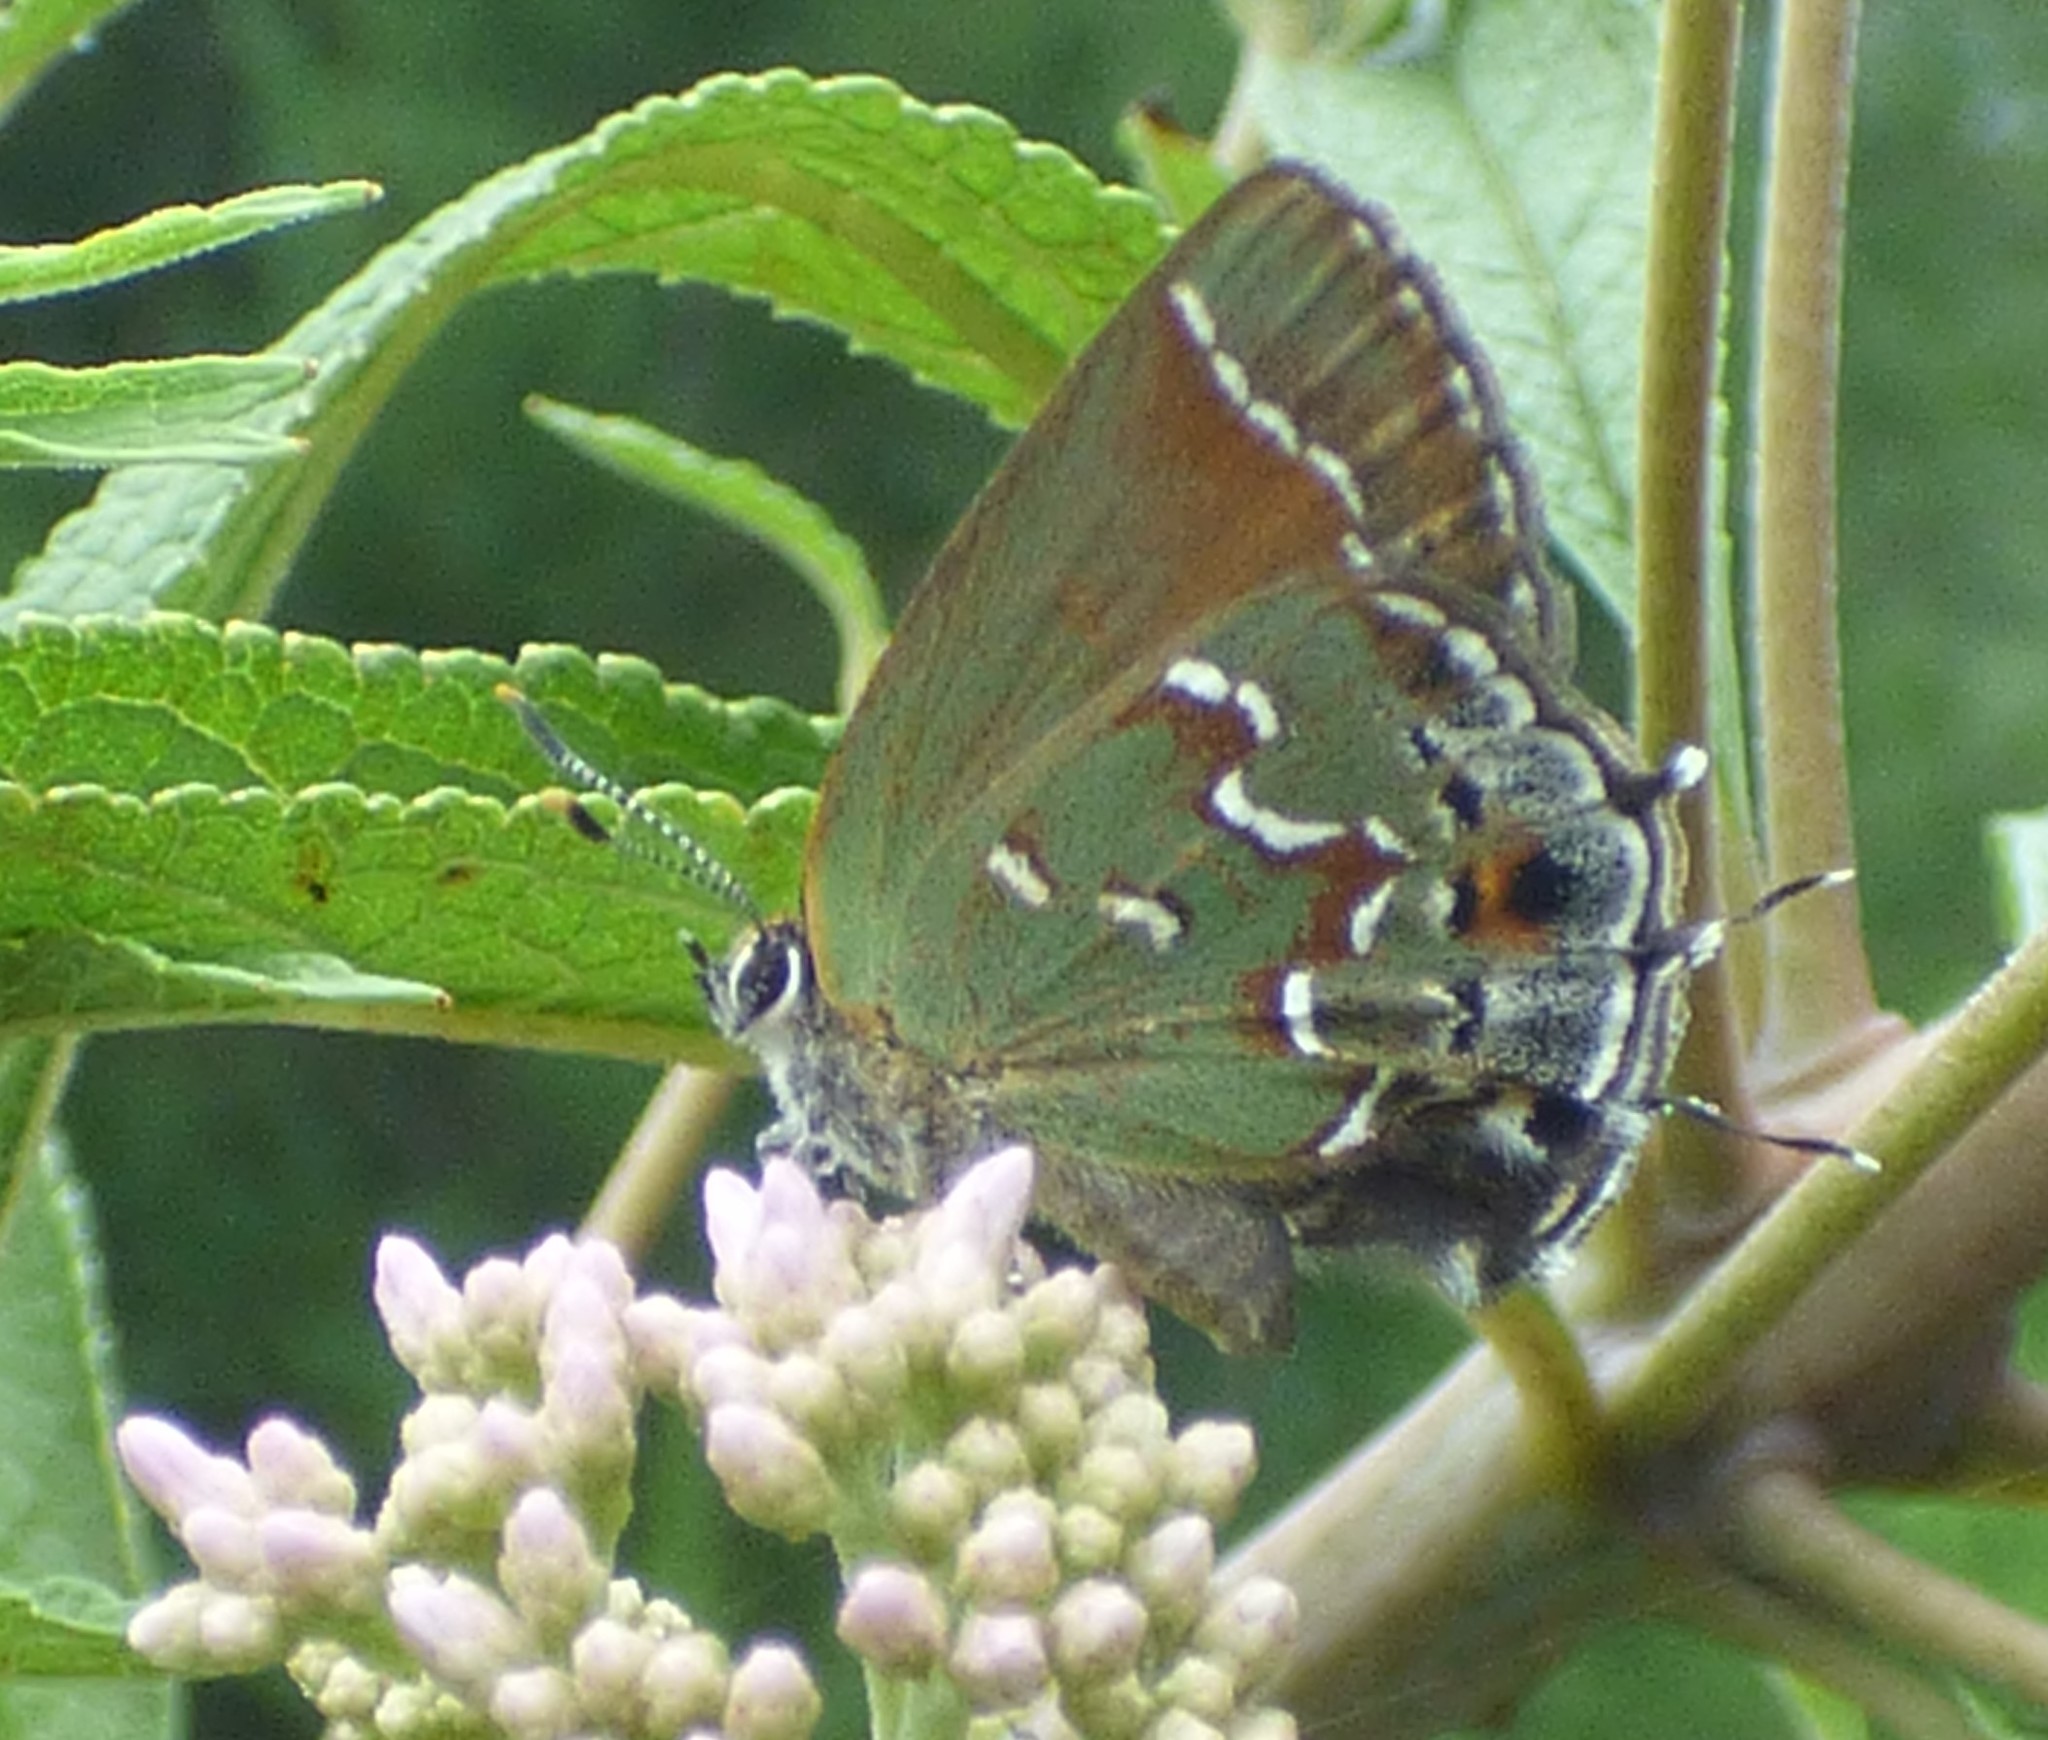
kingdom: Animalia
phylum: Arthropoda
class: Insecta
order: Lepidoptera
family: Lycaenidae
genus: Mitoura
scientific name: Mitoura gryneus
